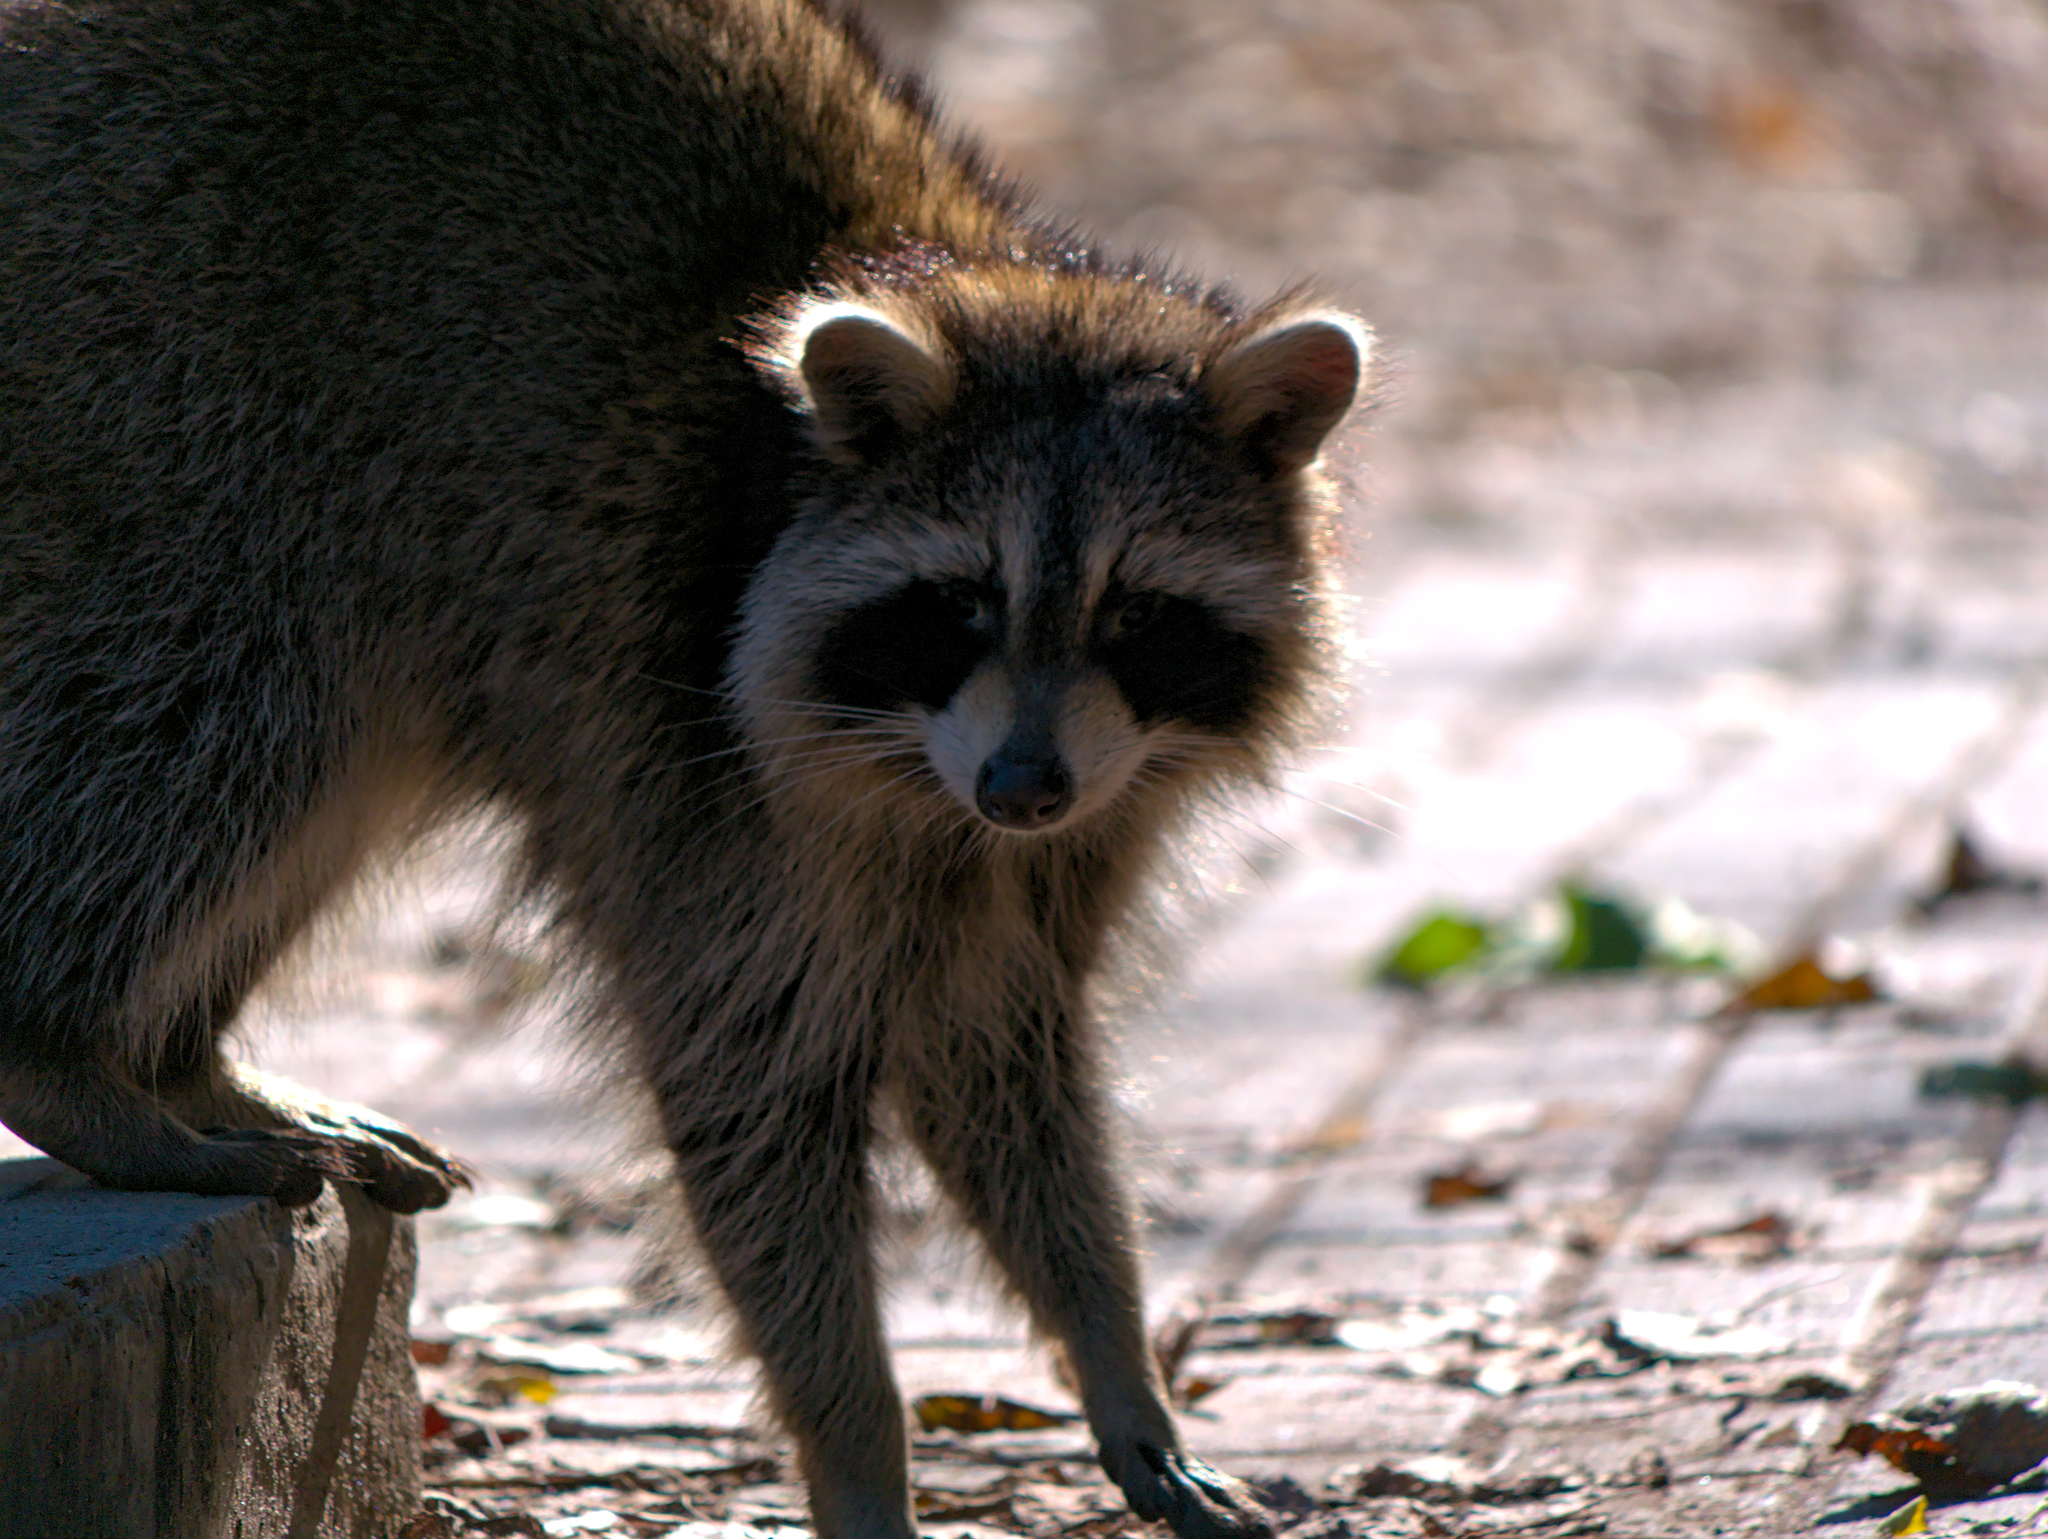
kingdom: Animalia
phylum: Chordata
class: Mammalia
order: Carnivora
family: Procyonidae
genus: Procyon
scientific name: Procyon lotor
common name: Raccoon
